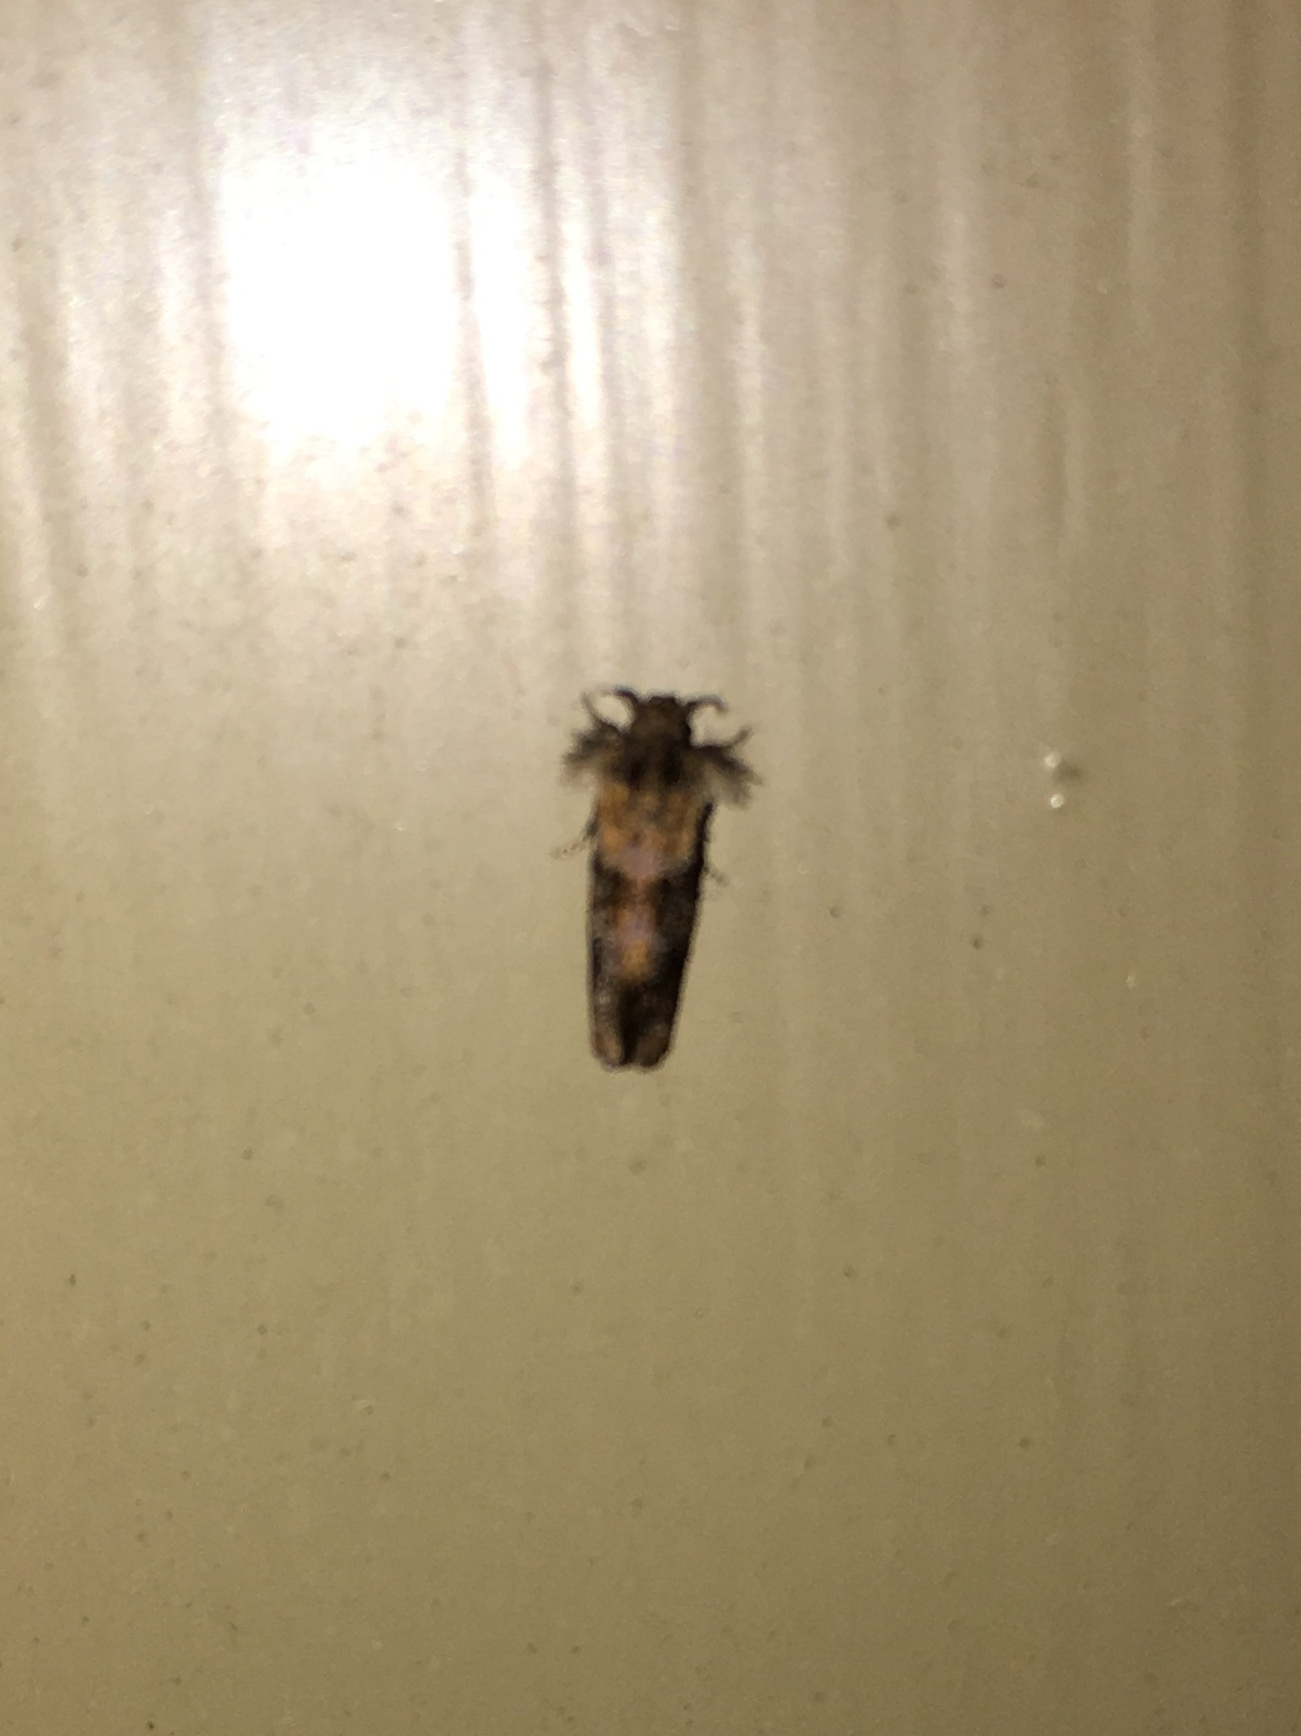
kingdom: Animalia
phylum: Arthropoda
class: Insecta
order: Lepidoptera
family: Tineidae
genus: Acrolophus
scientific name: Acrolophus panamae
